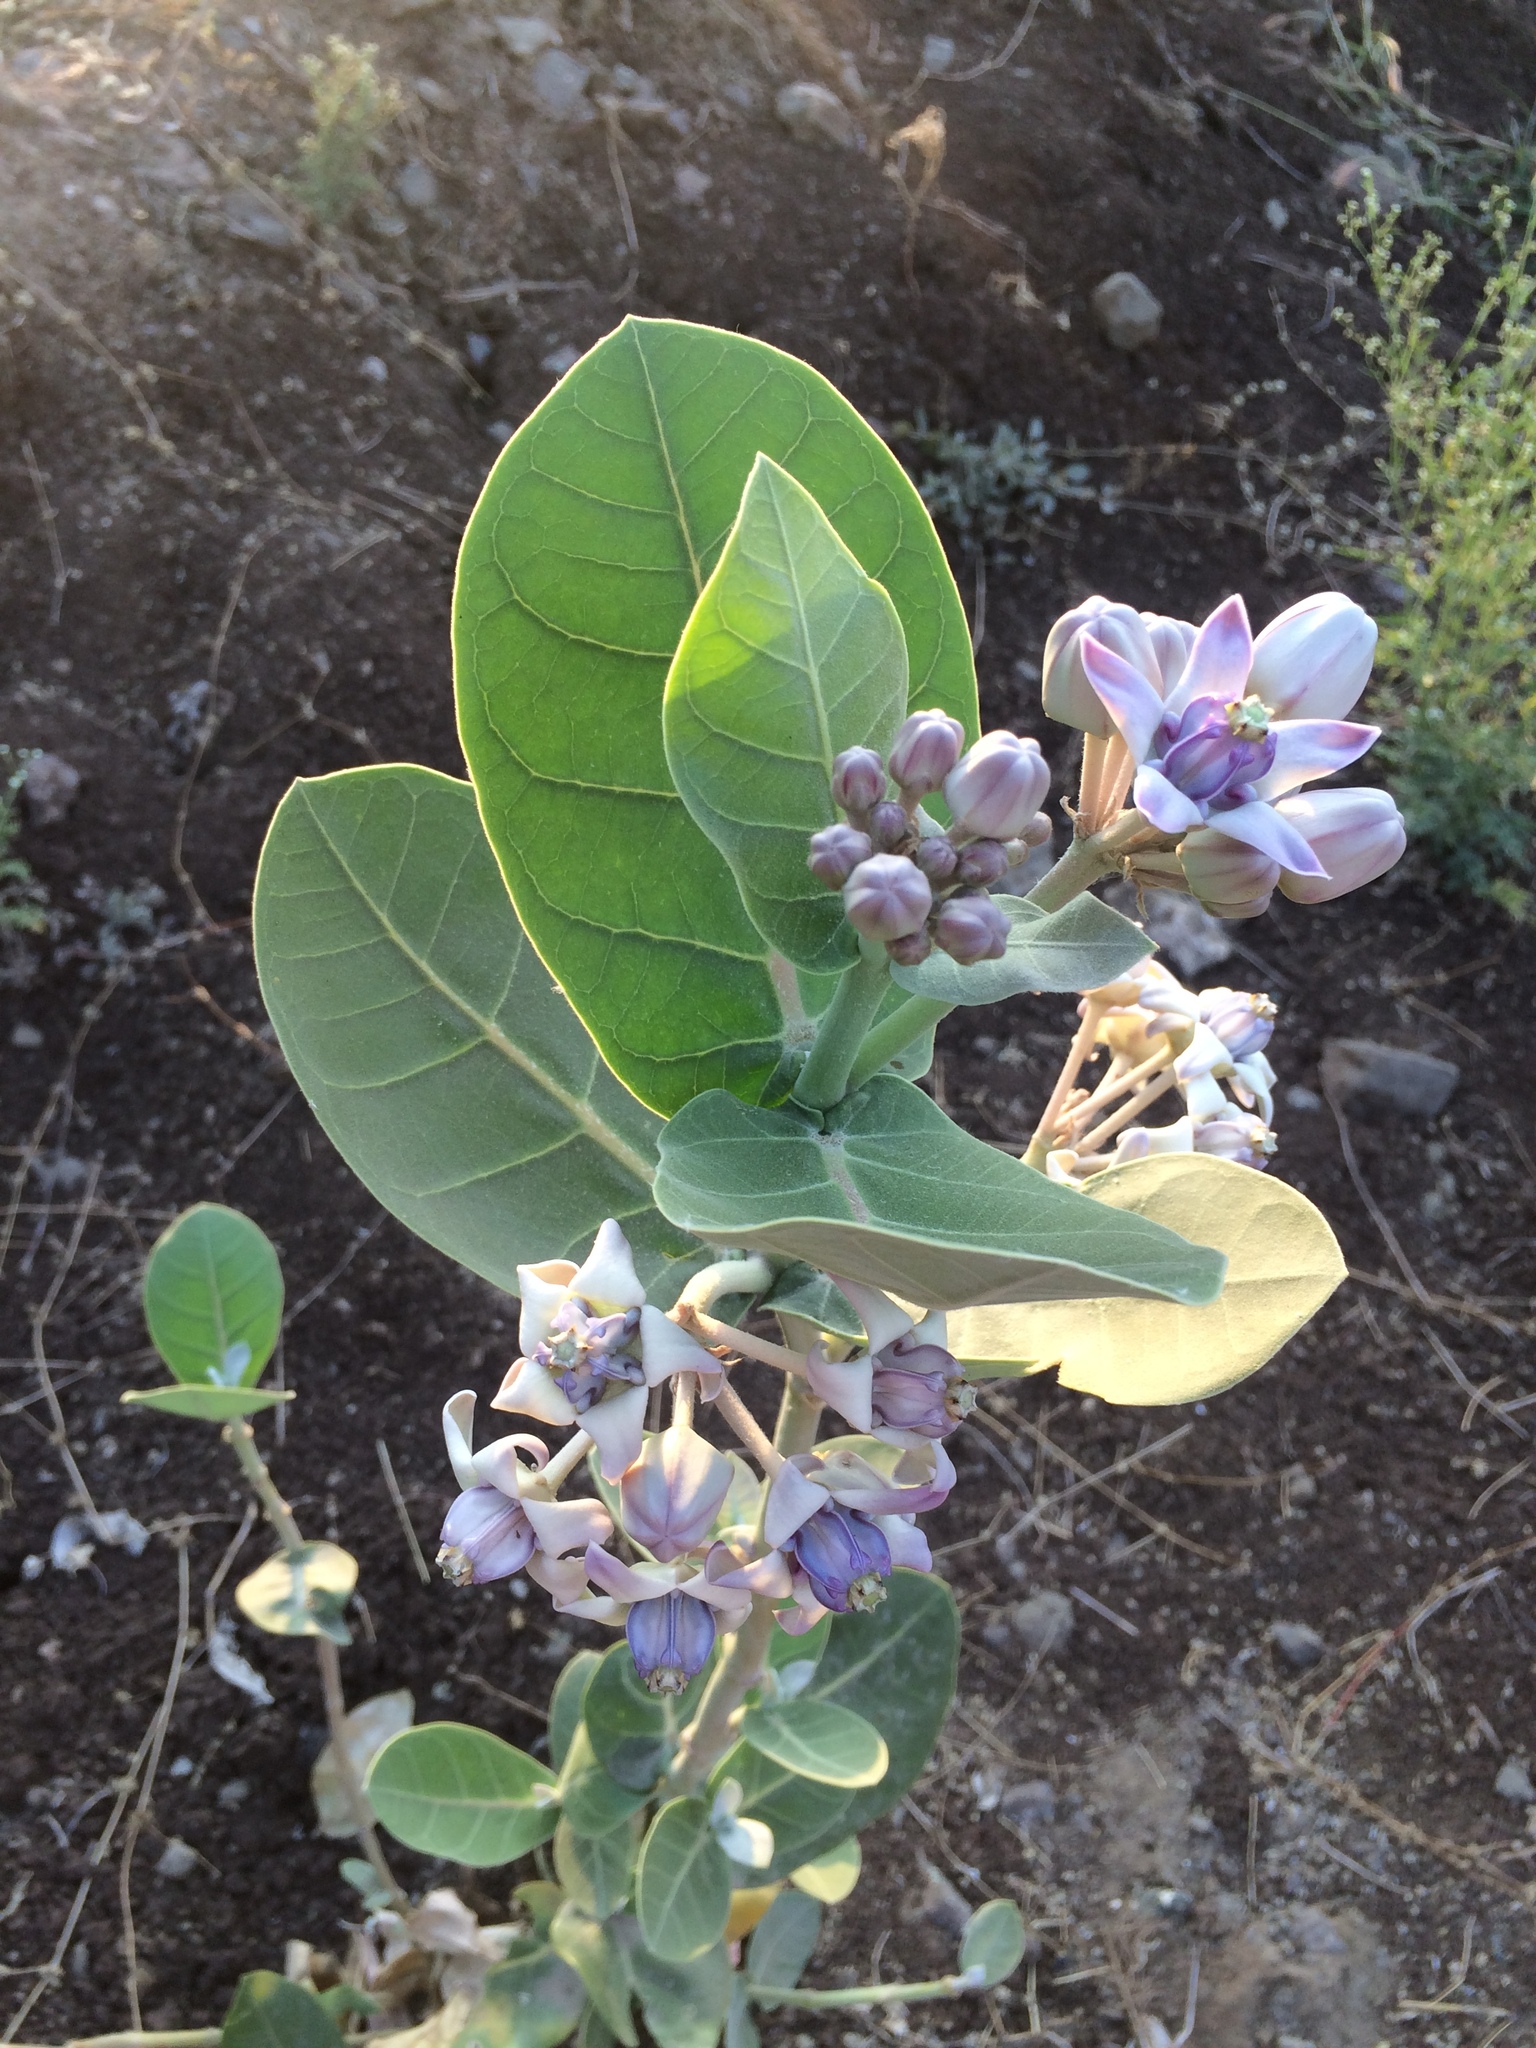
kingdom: Plantae
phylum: Tracheophyta
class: Magnoliopsida
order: Gentianales
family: Apocynaceae
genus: Calotropis
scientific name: Calotropis gigantea
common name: Crown flower
